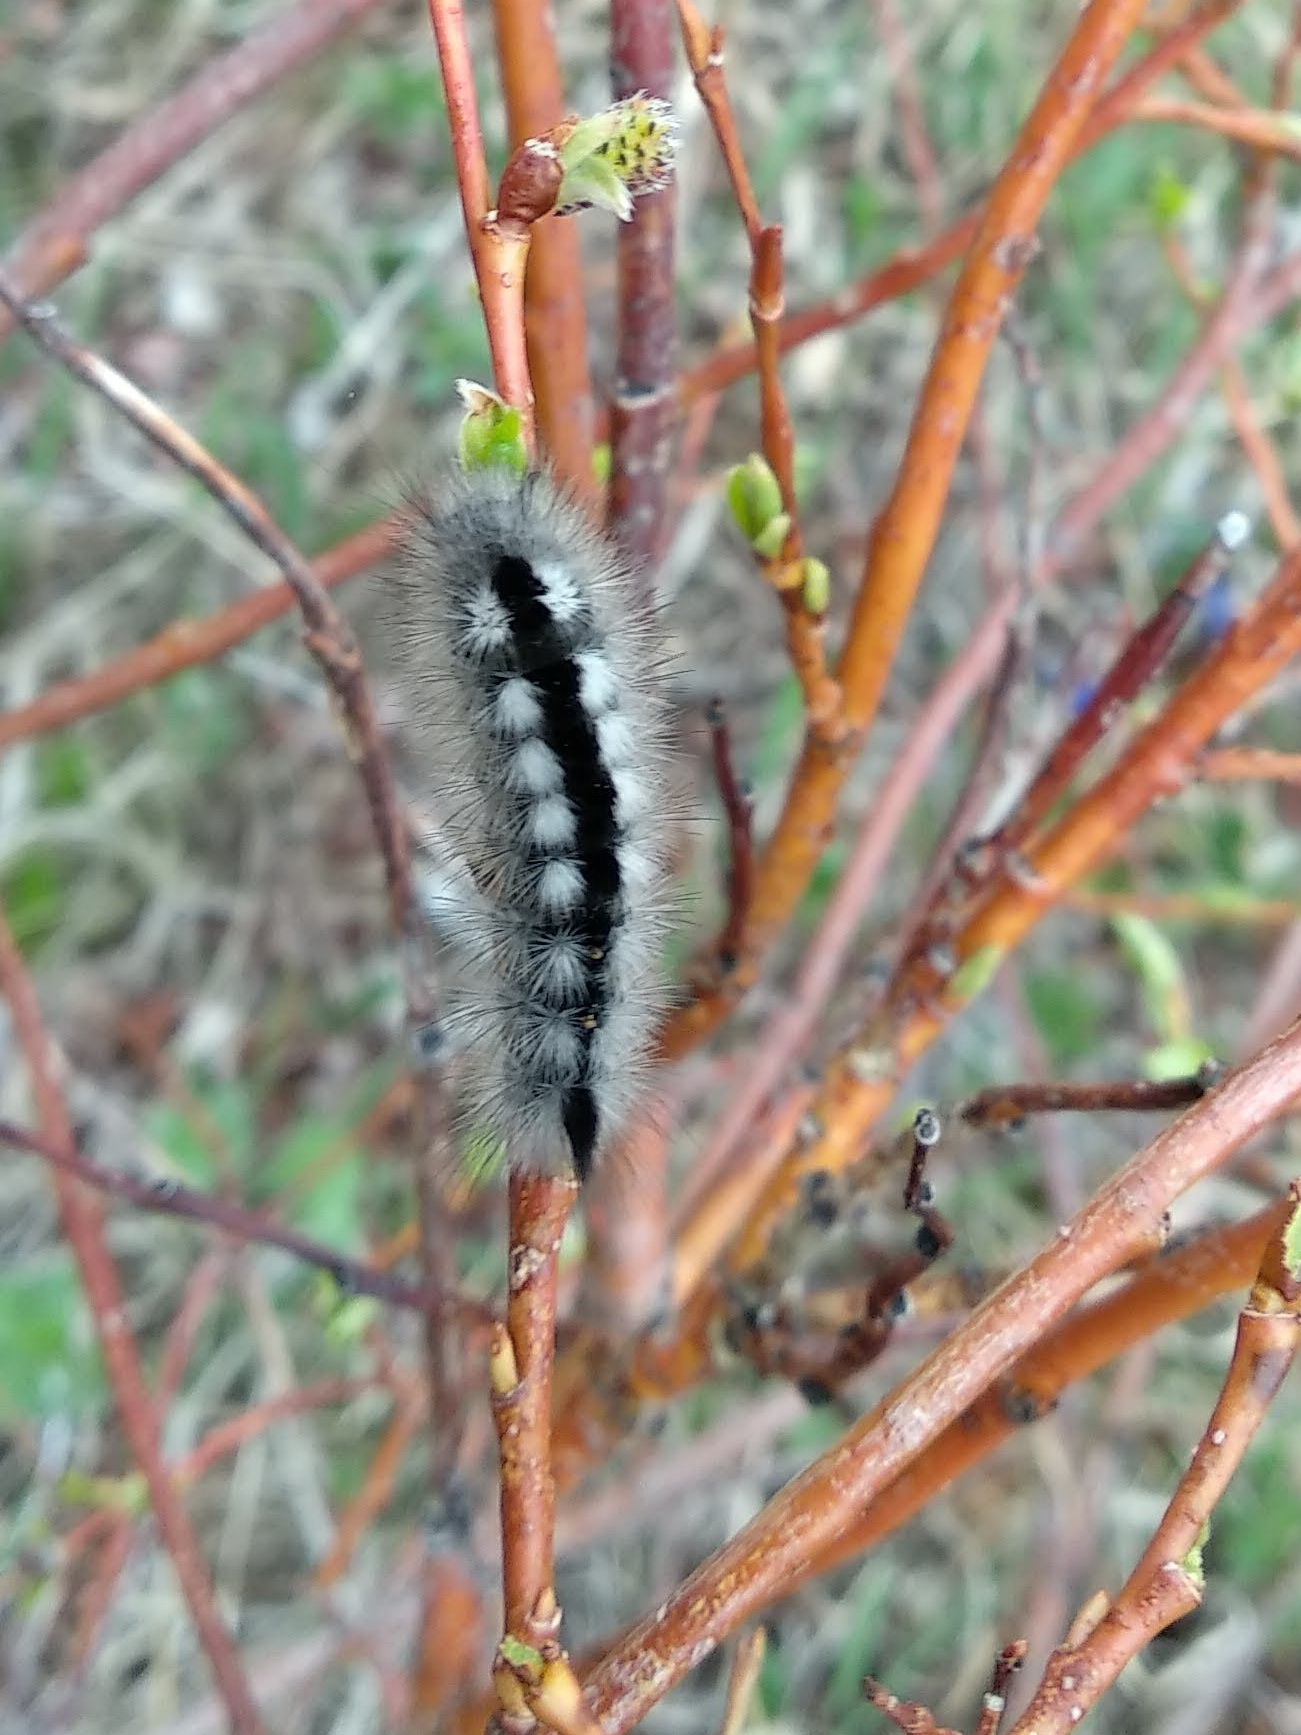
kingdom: Animalia
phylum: Arthropoda
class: Insecta
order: Lepidoptera
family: Erebidae
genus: Calliteara
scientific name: Calliteara Dicallomera fascelina
